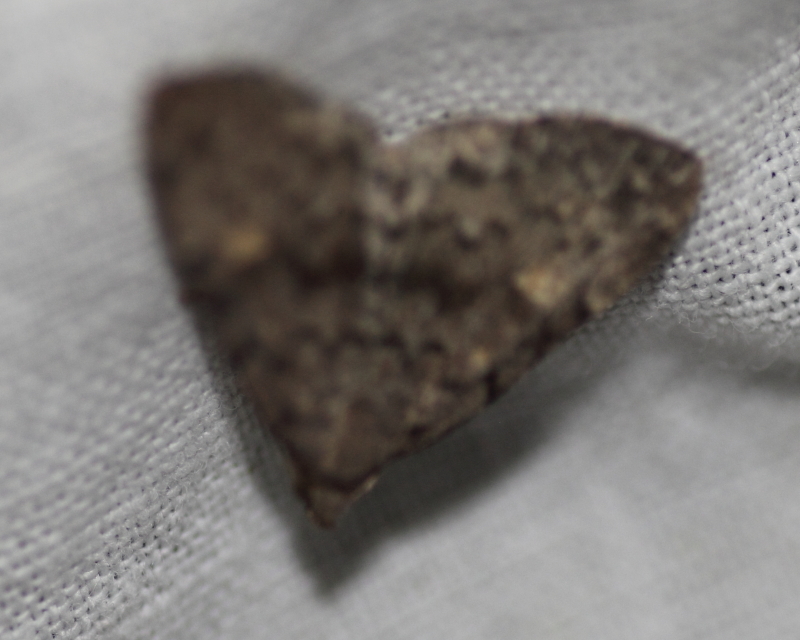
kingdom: Animalia
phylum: Arthropoda
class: Insecta
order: Lepidoptera
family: Erebidae
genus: Idia
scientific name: Idia aemula
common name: Common idia moth
